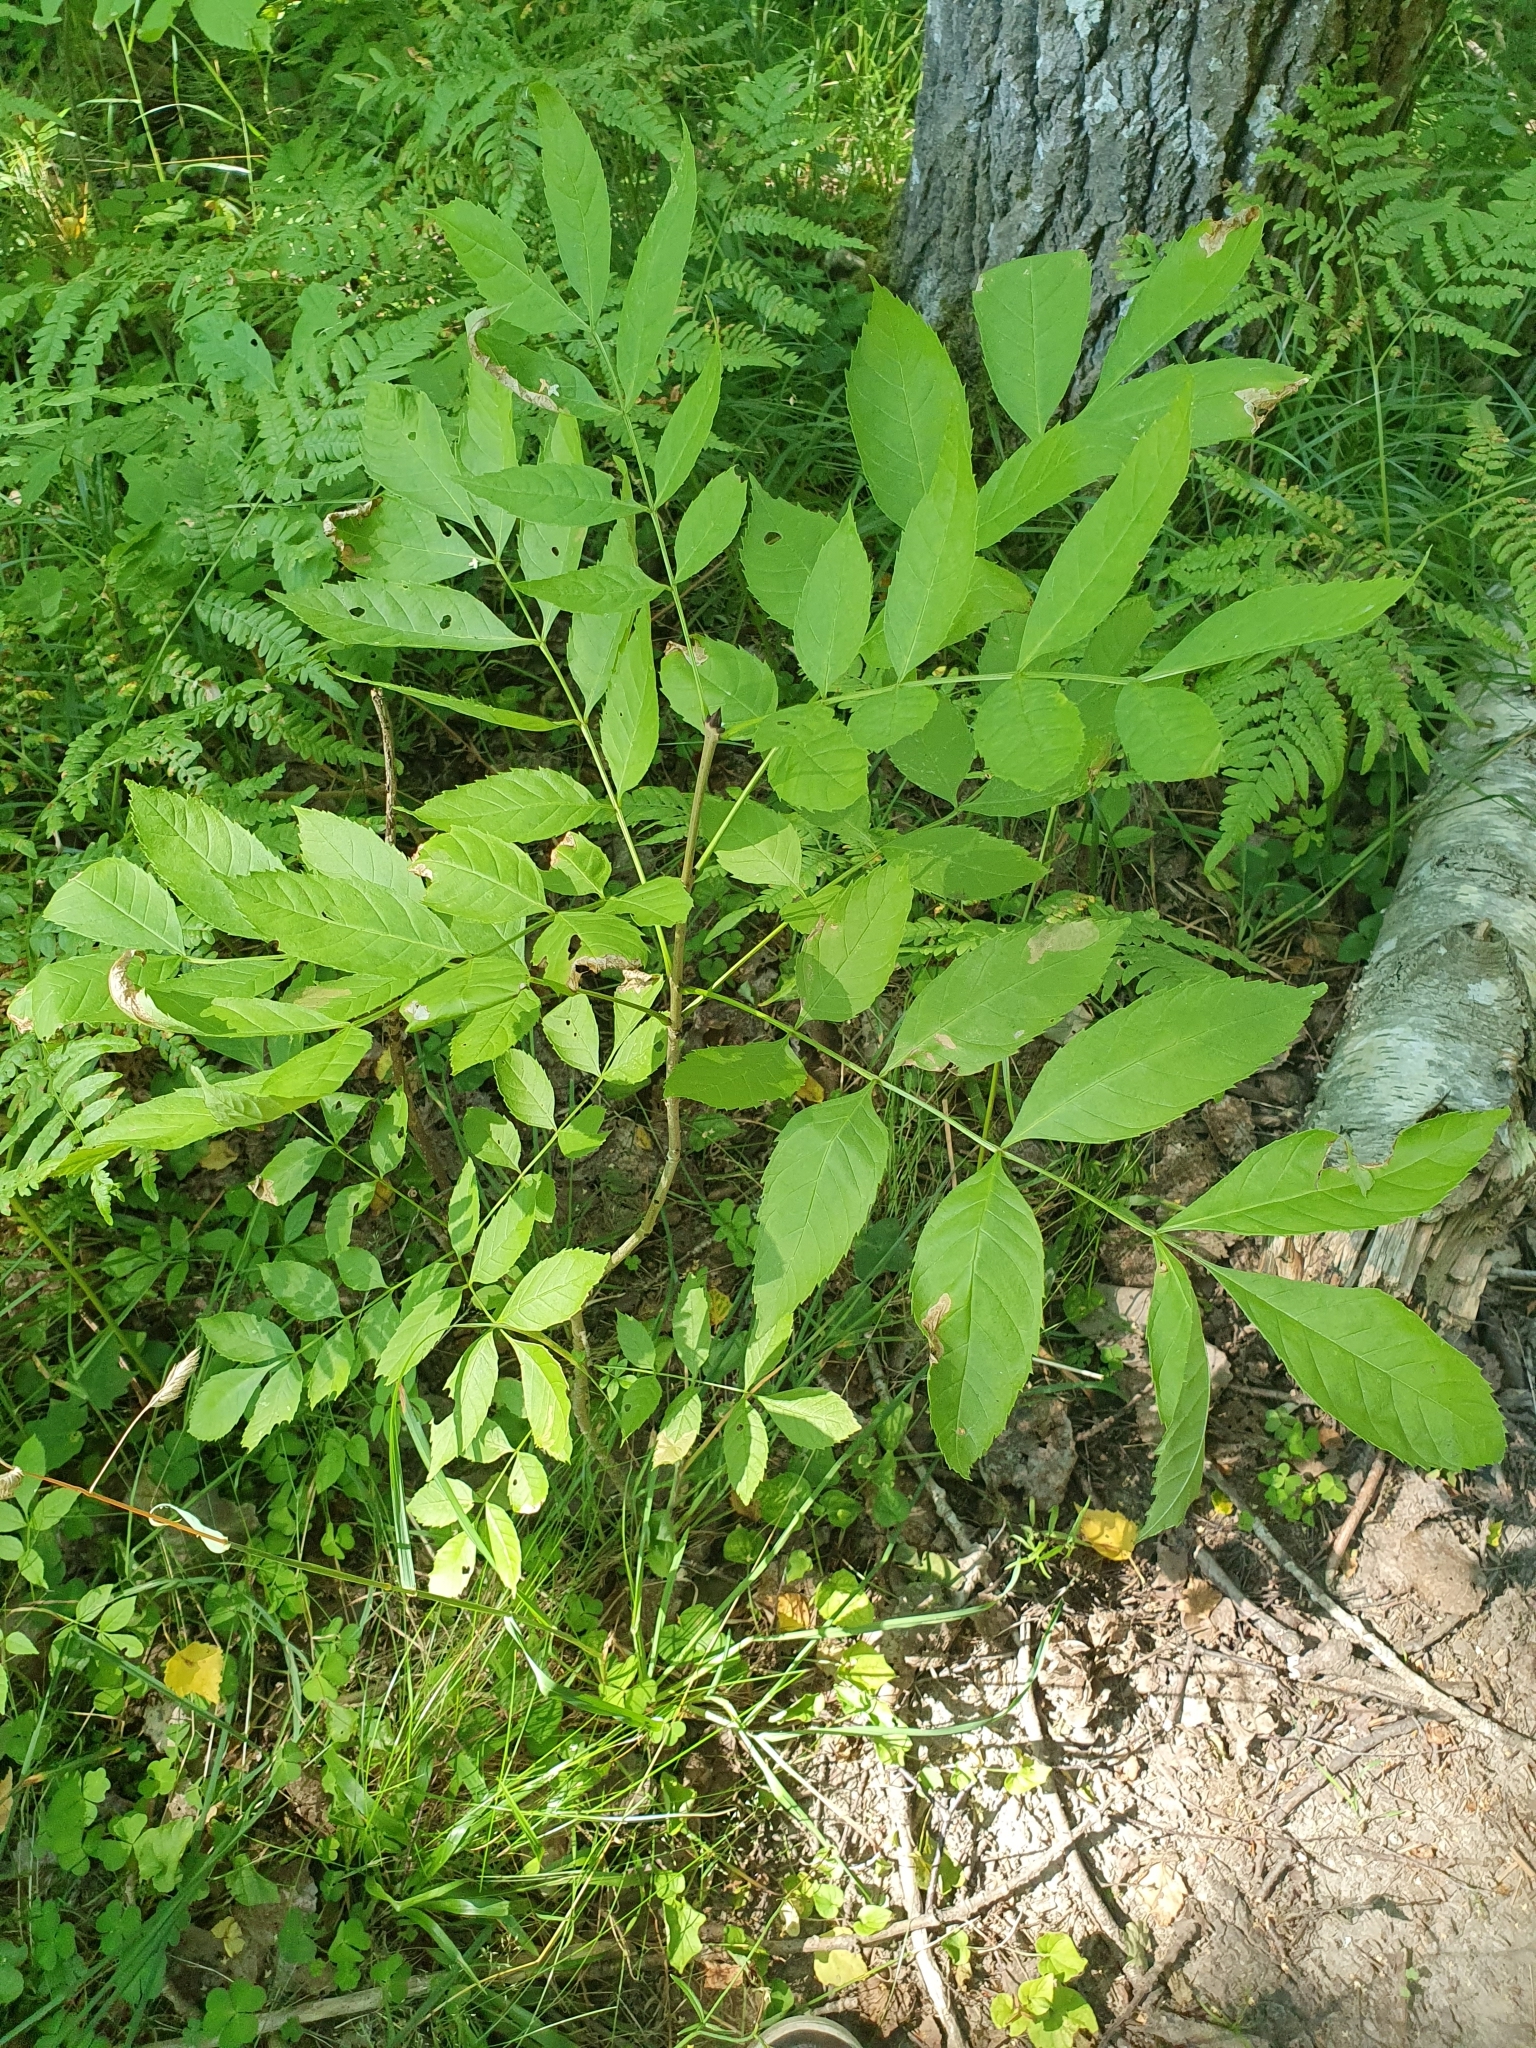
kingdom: Plantae
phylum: Tracheophyta
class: Magnoliopsida
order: Lamiales
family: Oleaceae
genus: Fraxinus
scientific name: Fraxinus excelsior
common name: European ash
